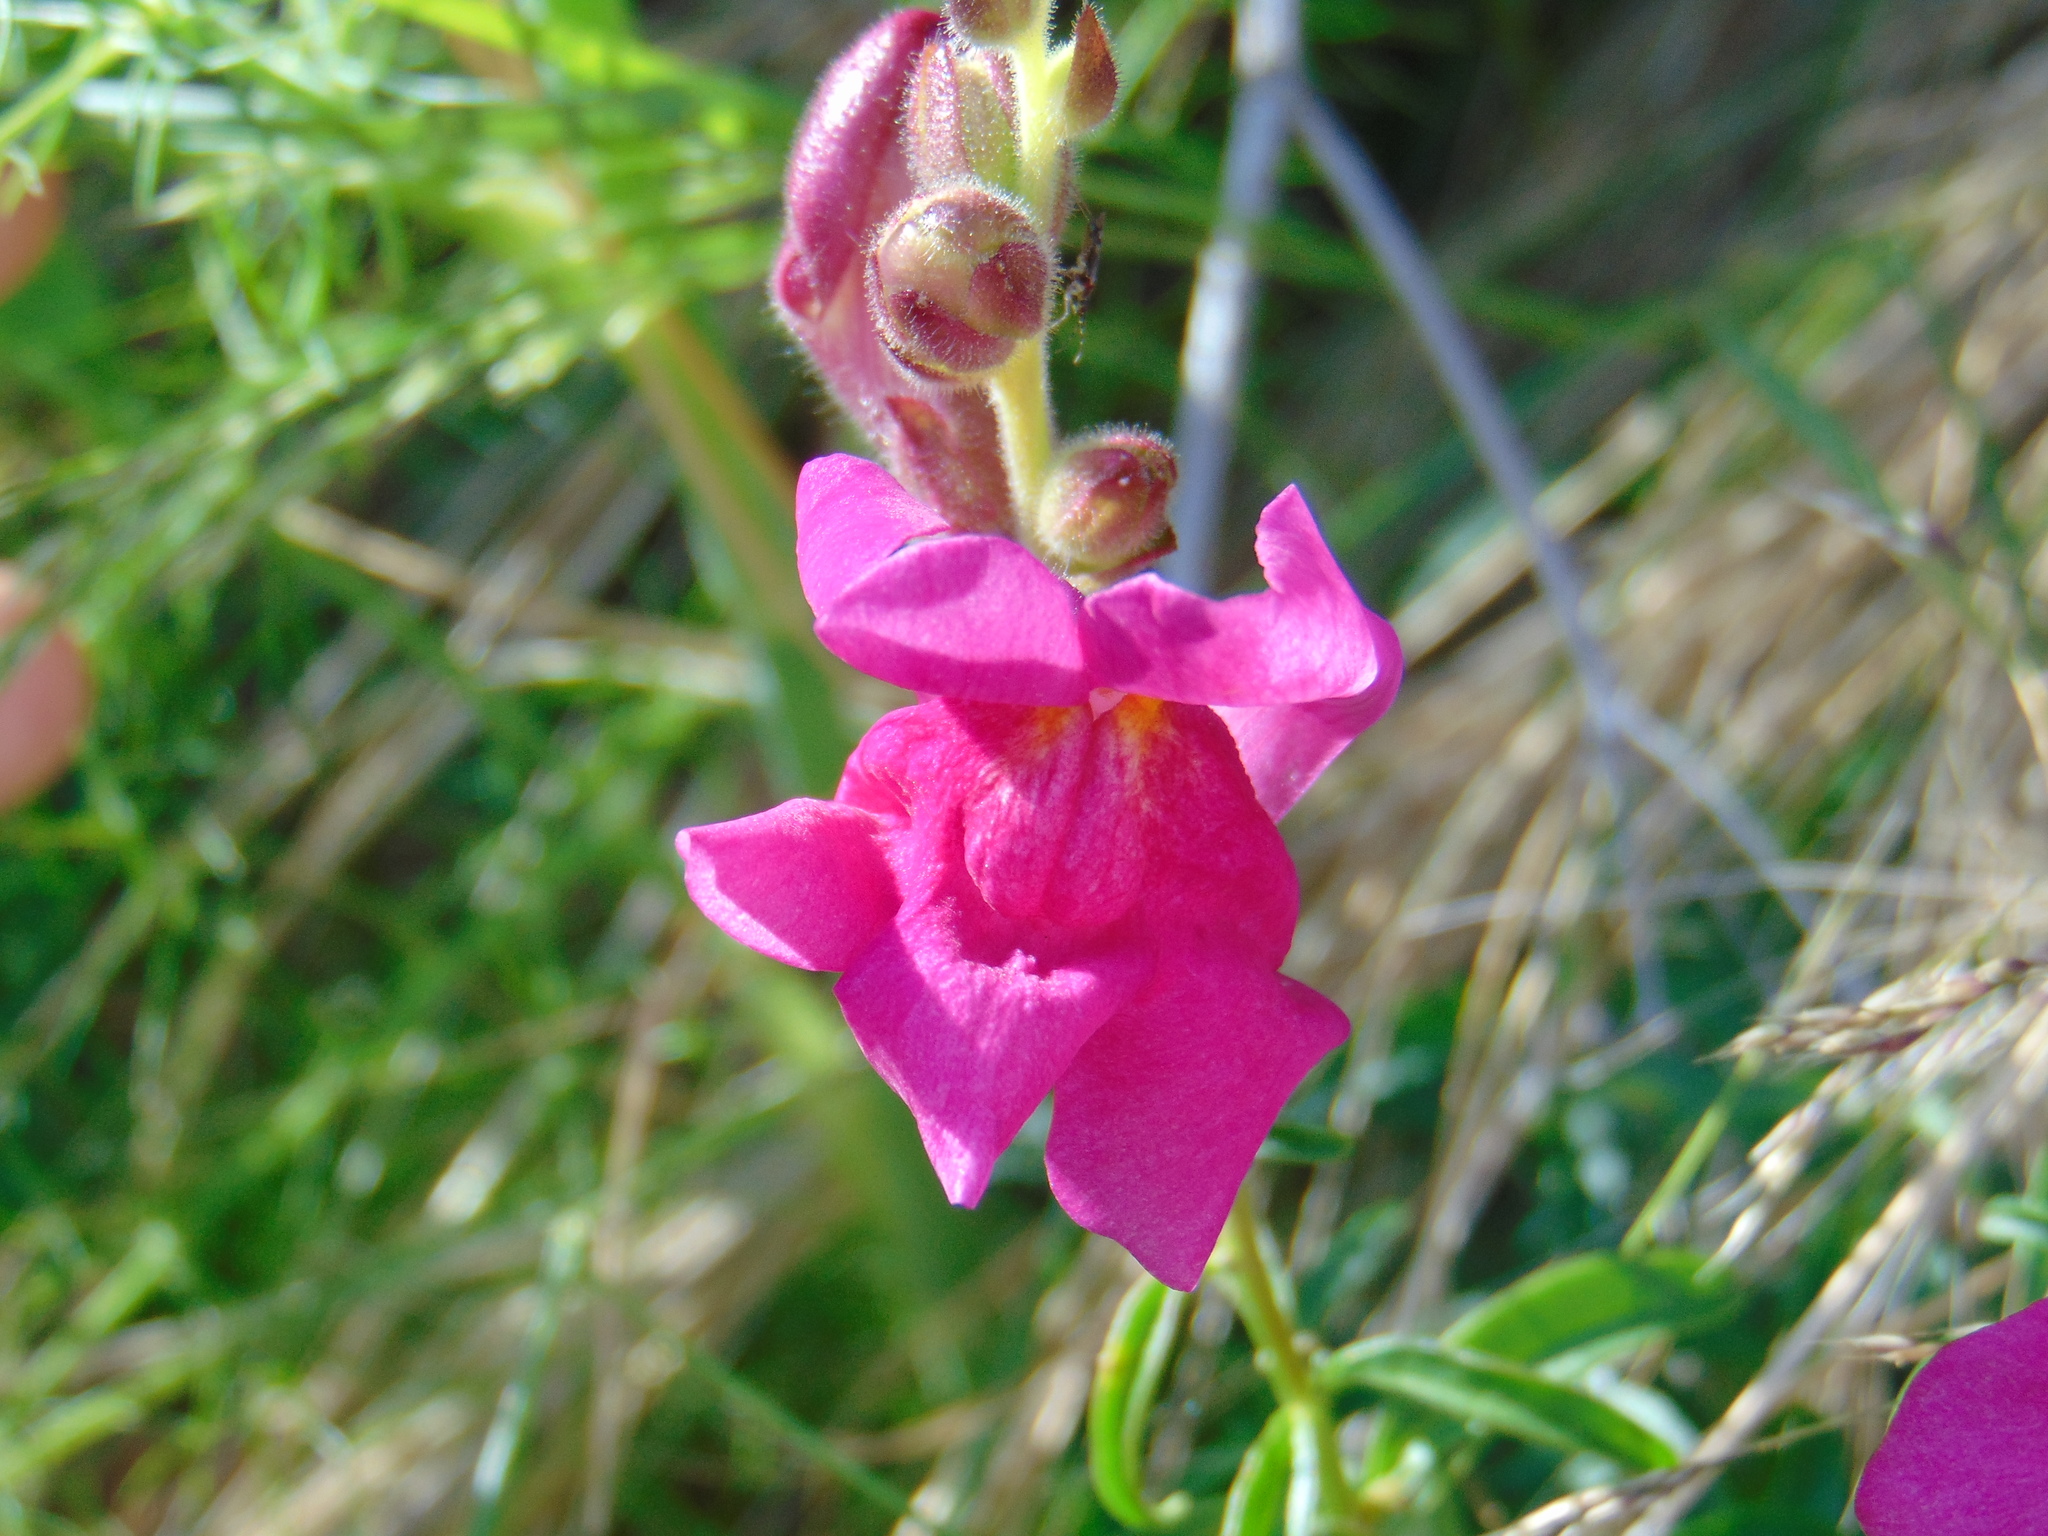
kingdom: Plantae
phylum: Tracheophyta
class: Magnoliopsida
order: Lamiales
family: Plantaginaceae
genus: Antirrhinum
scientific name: Antirrhinum majus
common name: Snapdragon
